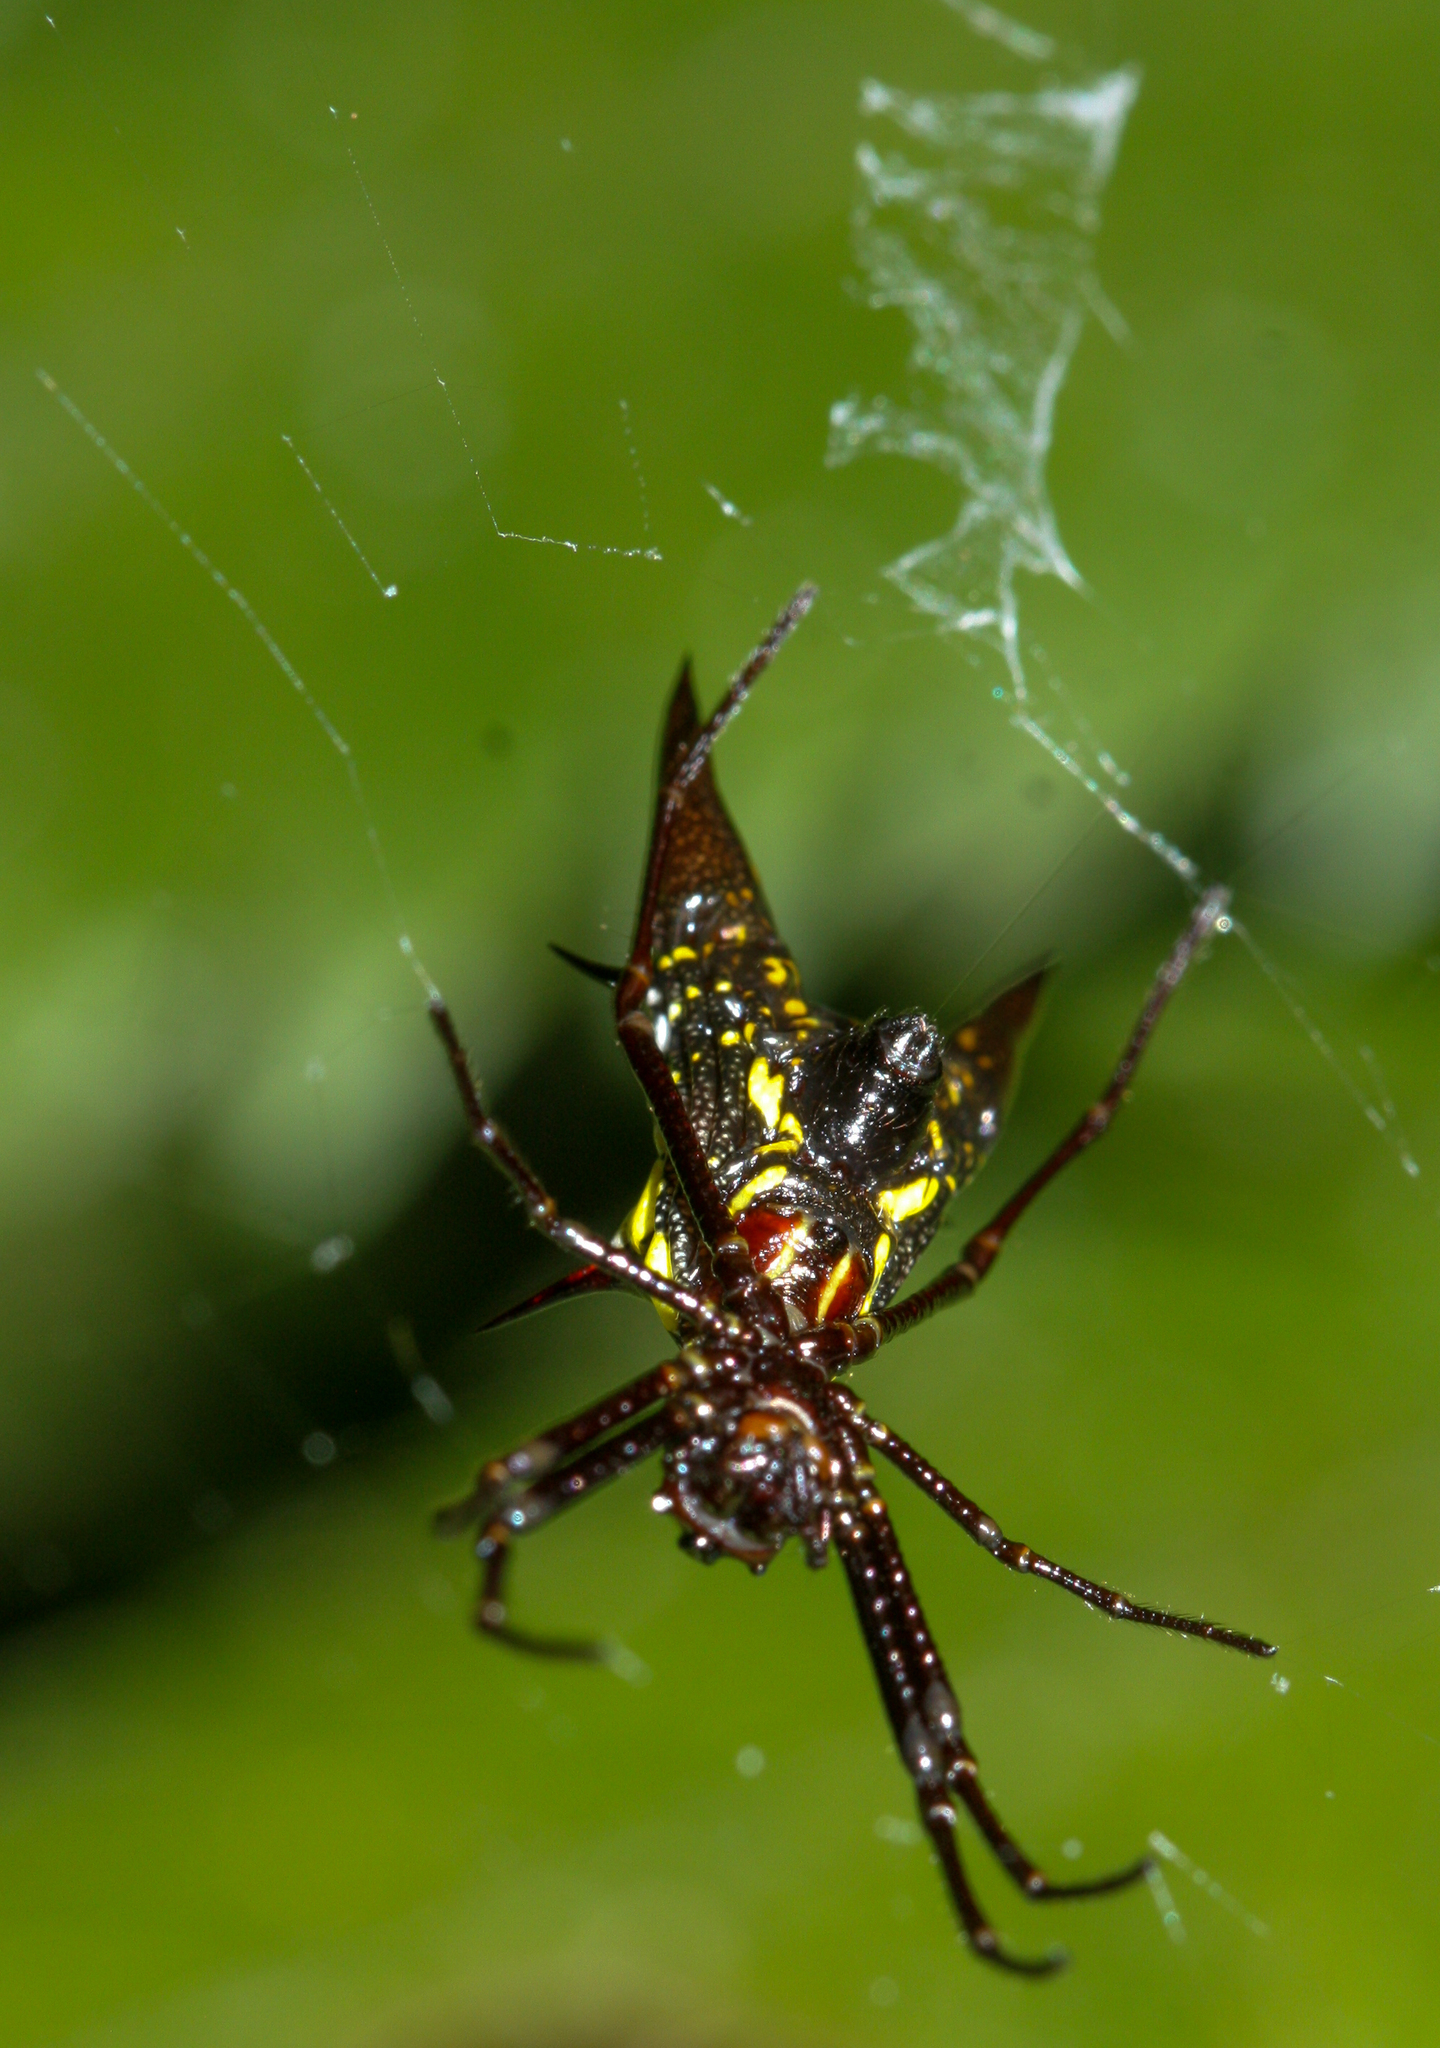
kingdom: Animalia
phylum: Arthropoda
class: Arachnida
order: Araneae
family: Araneidae
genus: Micrathena
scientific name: Micrathena pichincha
